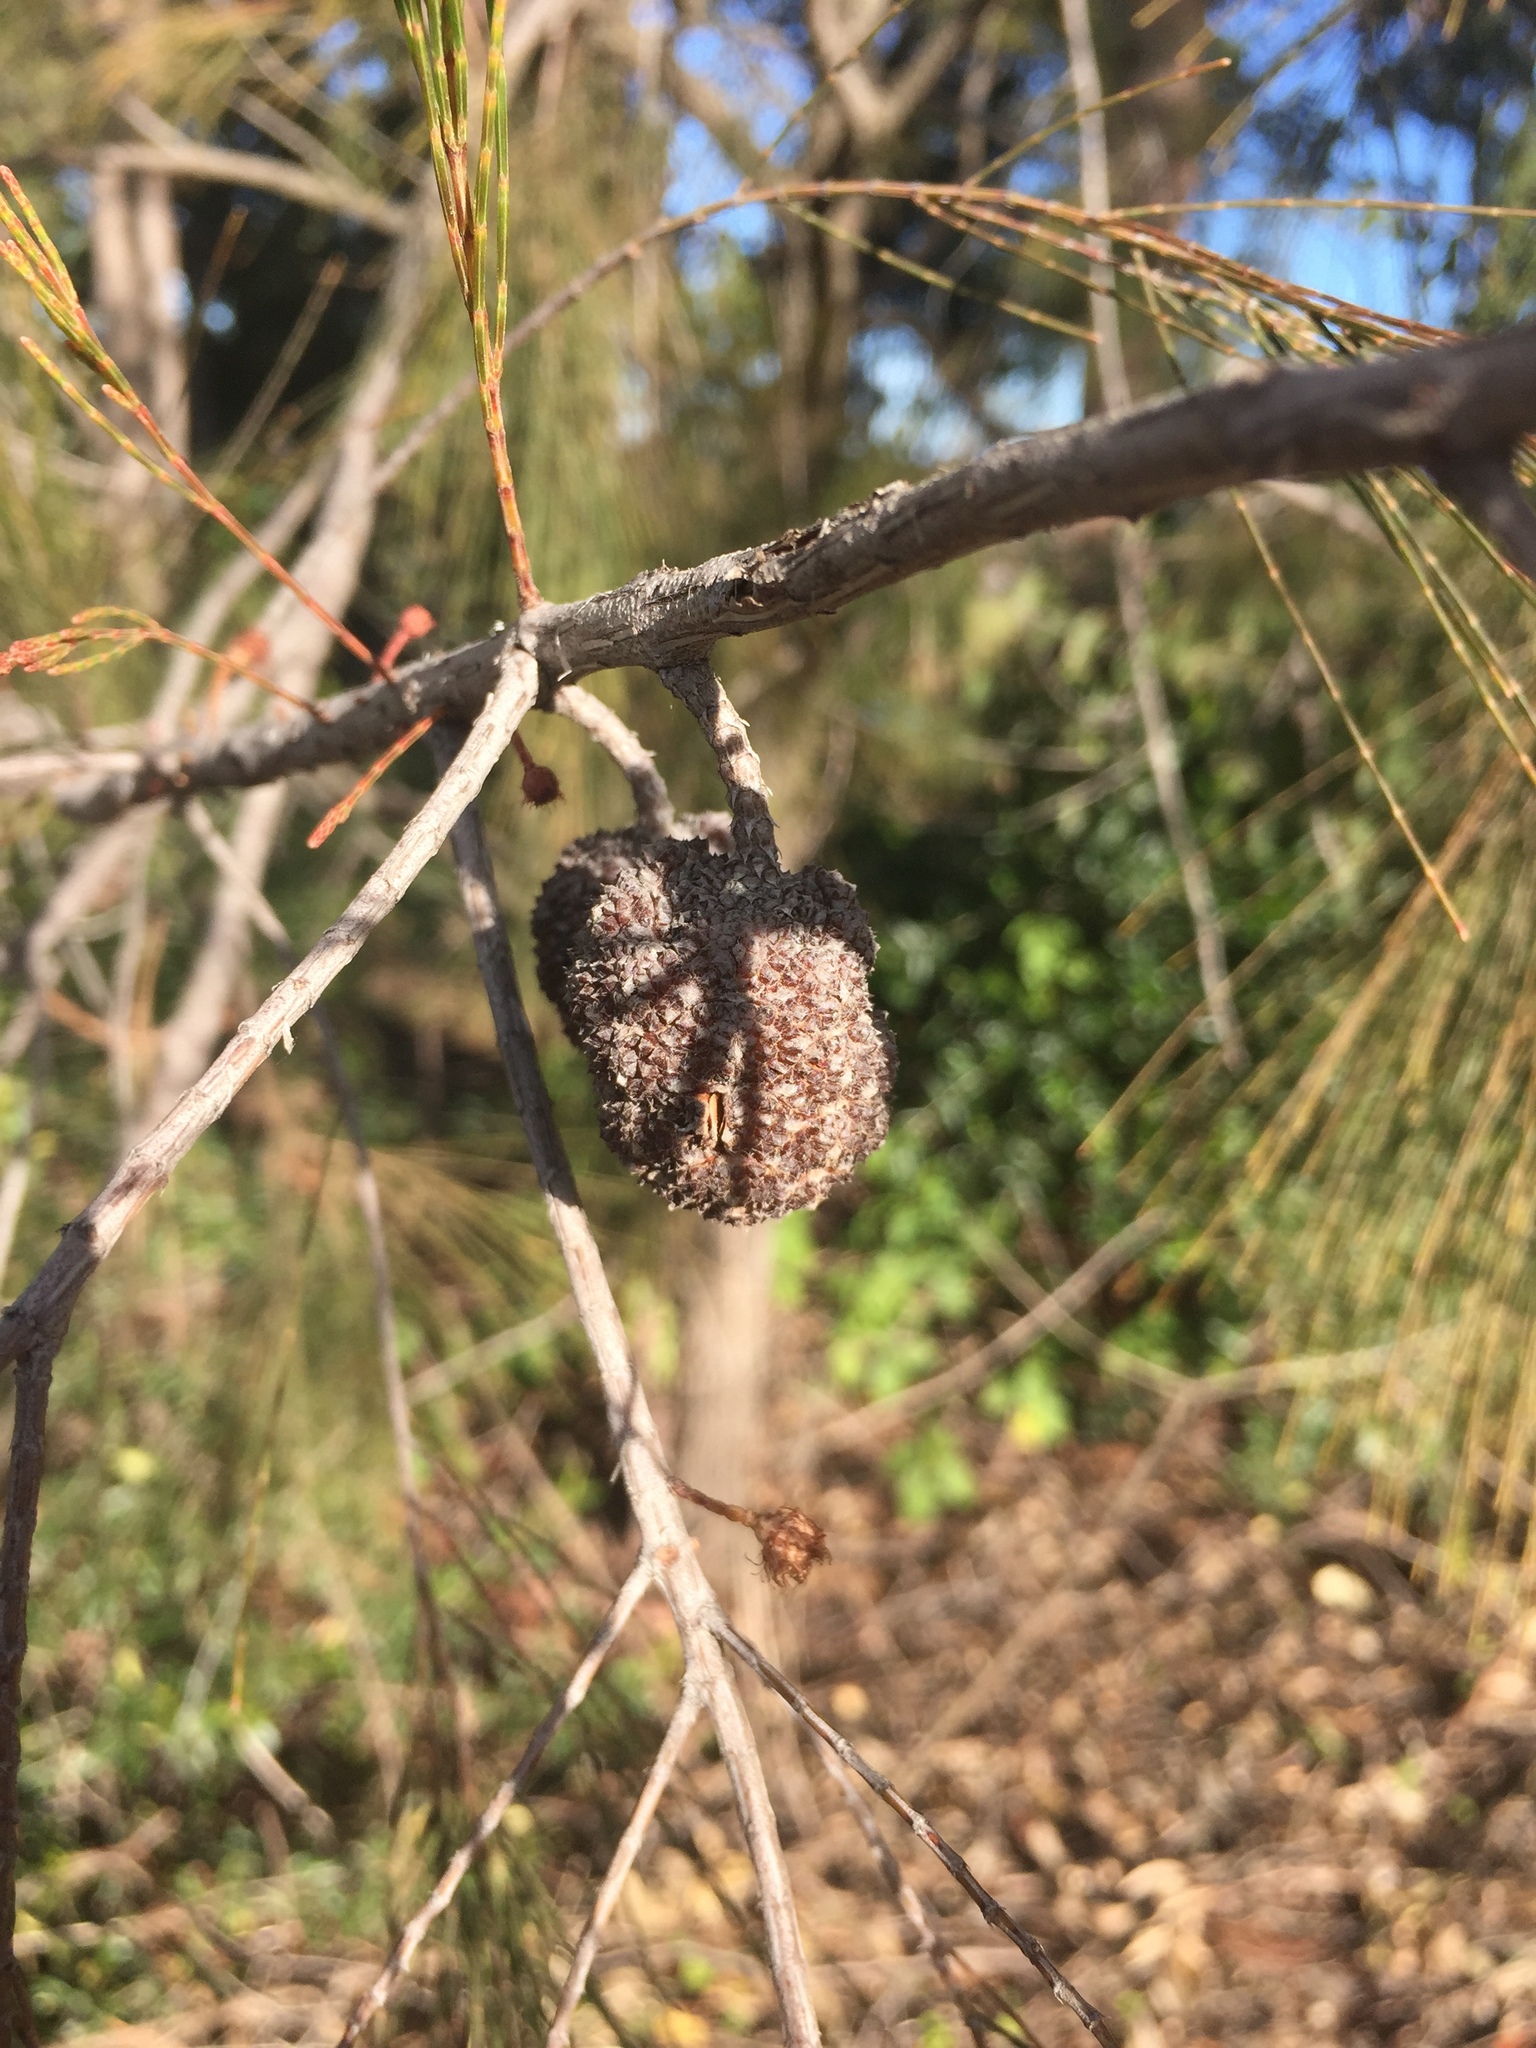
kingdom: Plantae
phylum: Tracheophyta
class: Magnoliopsida
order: Fagales
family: Casuarinaceae
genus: Allocasuarina
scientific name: Allocasuarina torulosa
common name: Forest-oak
